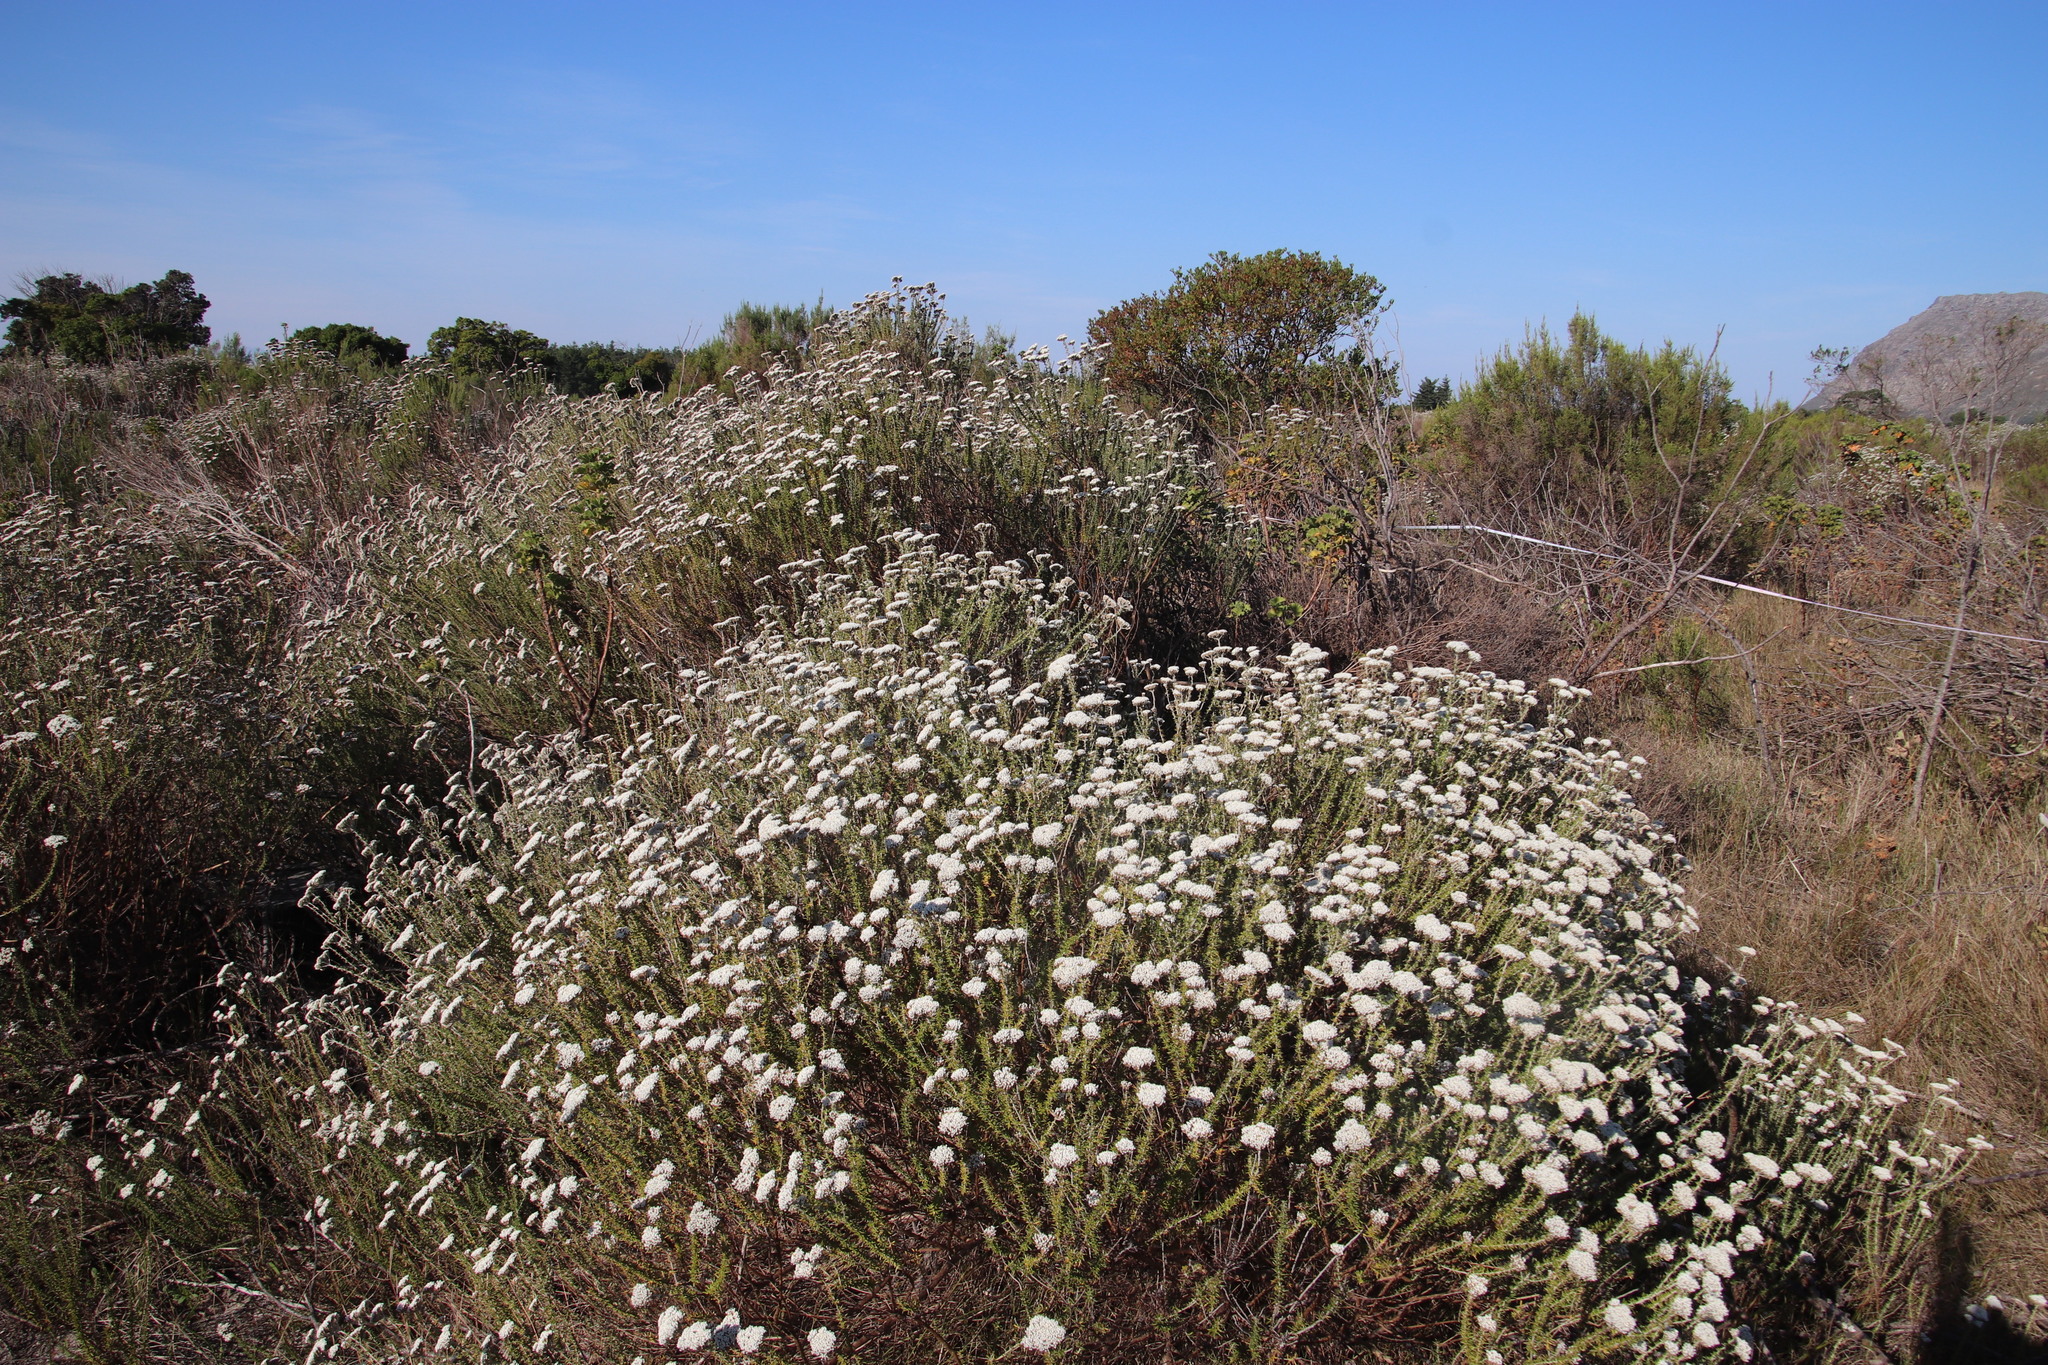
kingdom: Plantae
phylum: Tracheophyta
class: Magnoliopsida
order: Asterales
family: Asteraceae
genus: Metalasia
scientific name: Metalasia densa
